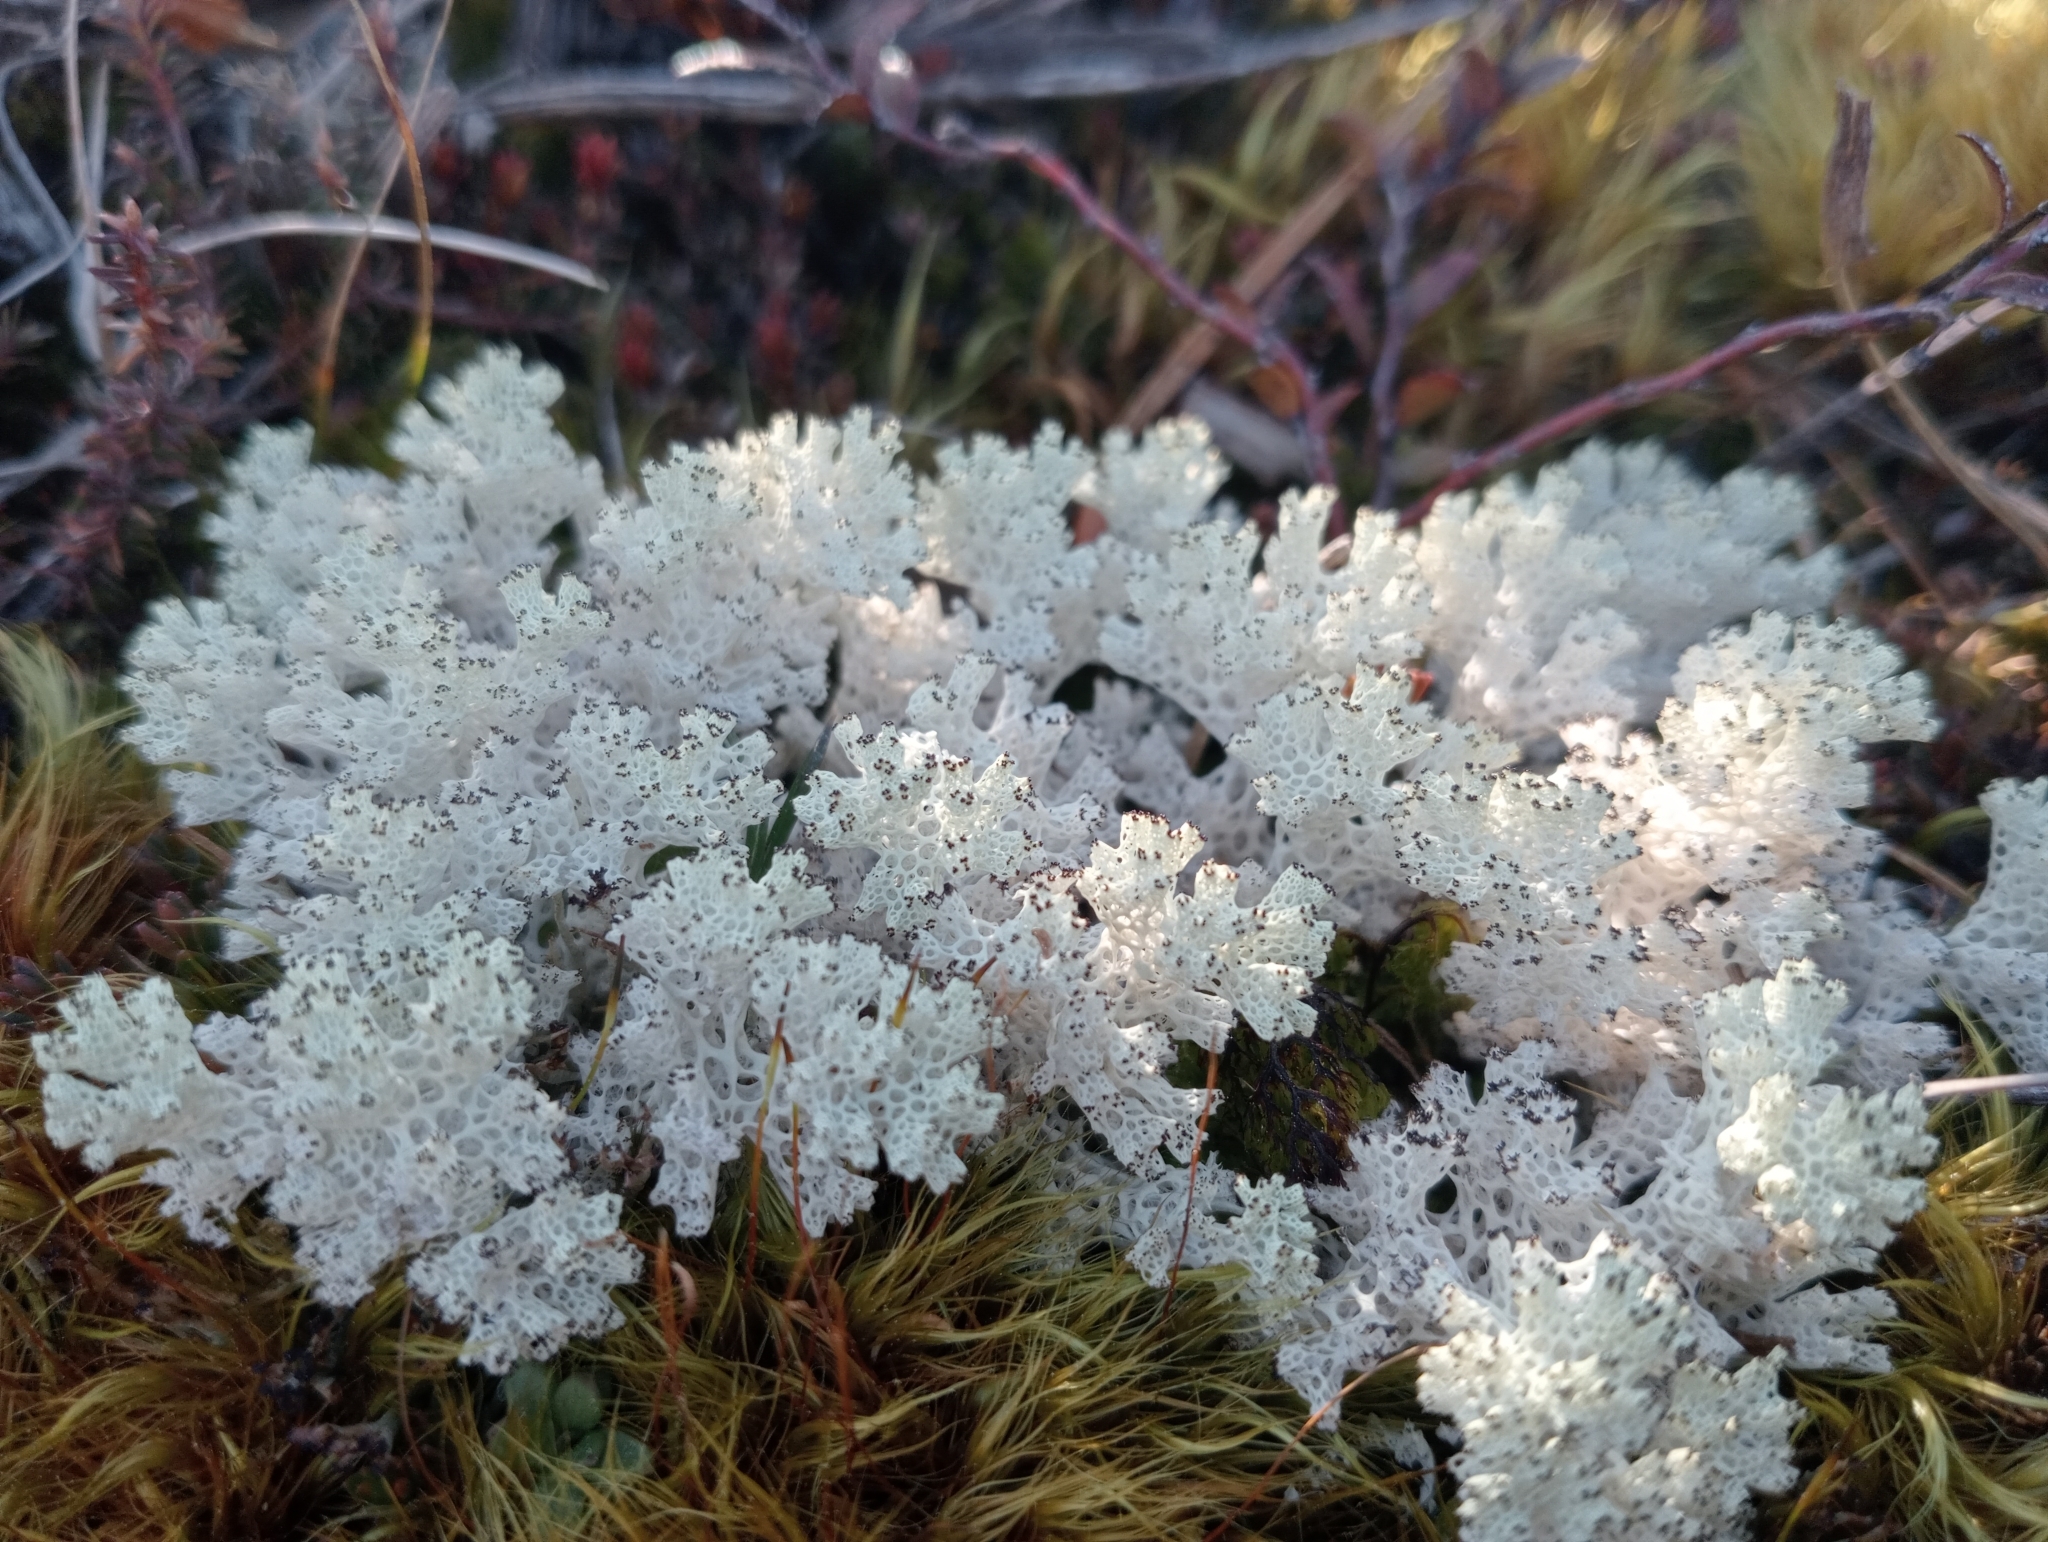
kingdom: Fungi
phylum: Ascomycota
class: Lecanoromycetes
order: Lecanorales
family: Cladoniaceae
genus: Pulchrocladia
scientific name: Pulchrocladia retipora
